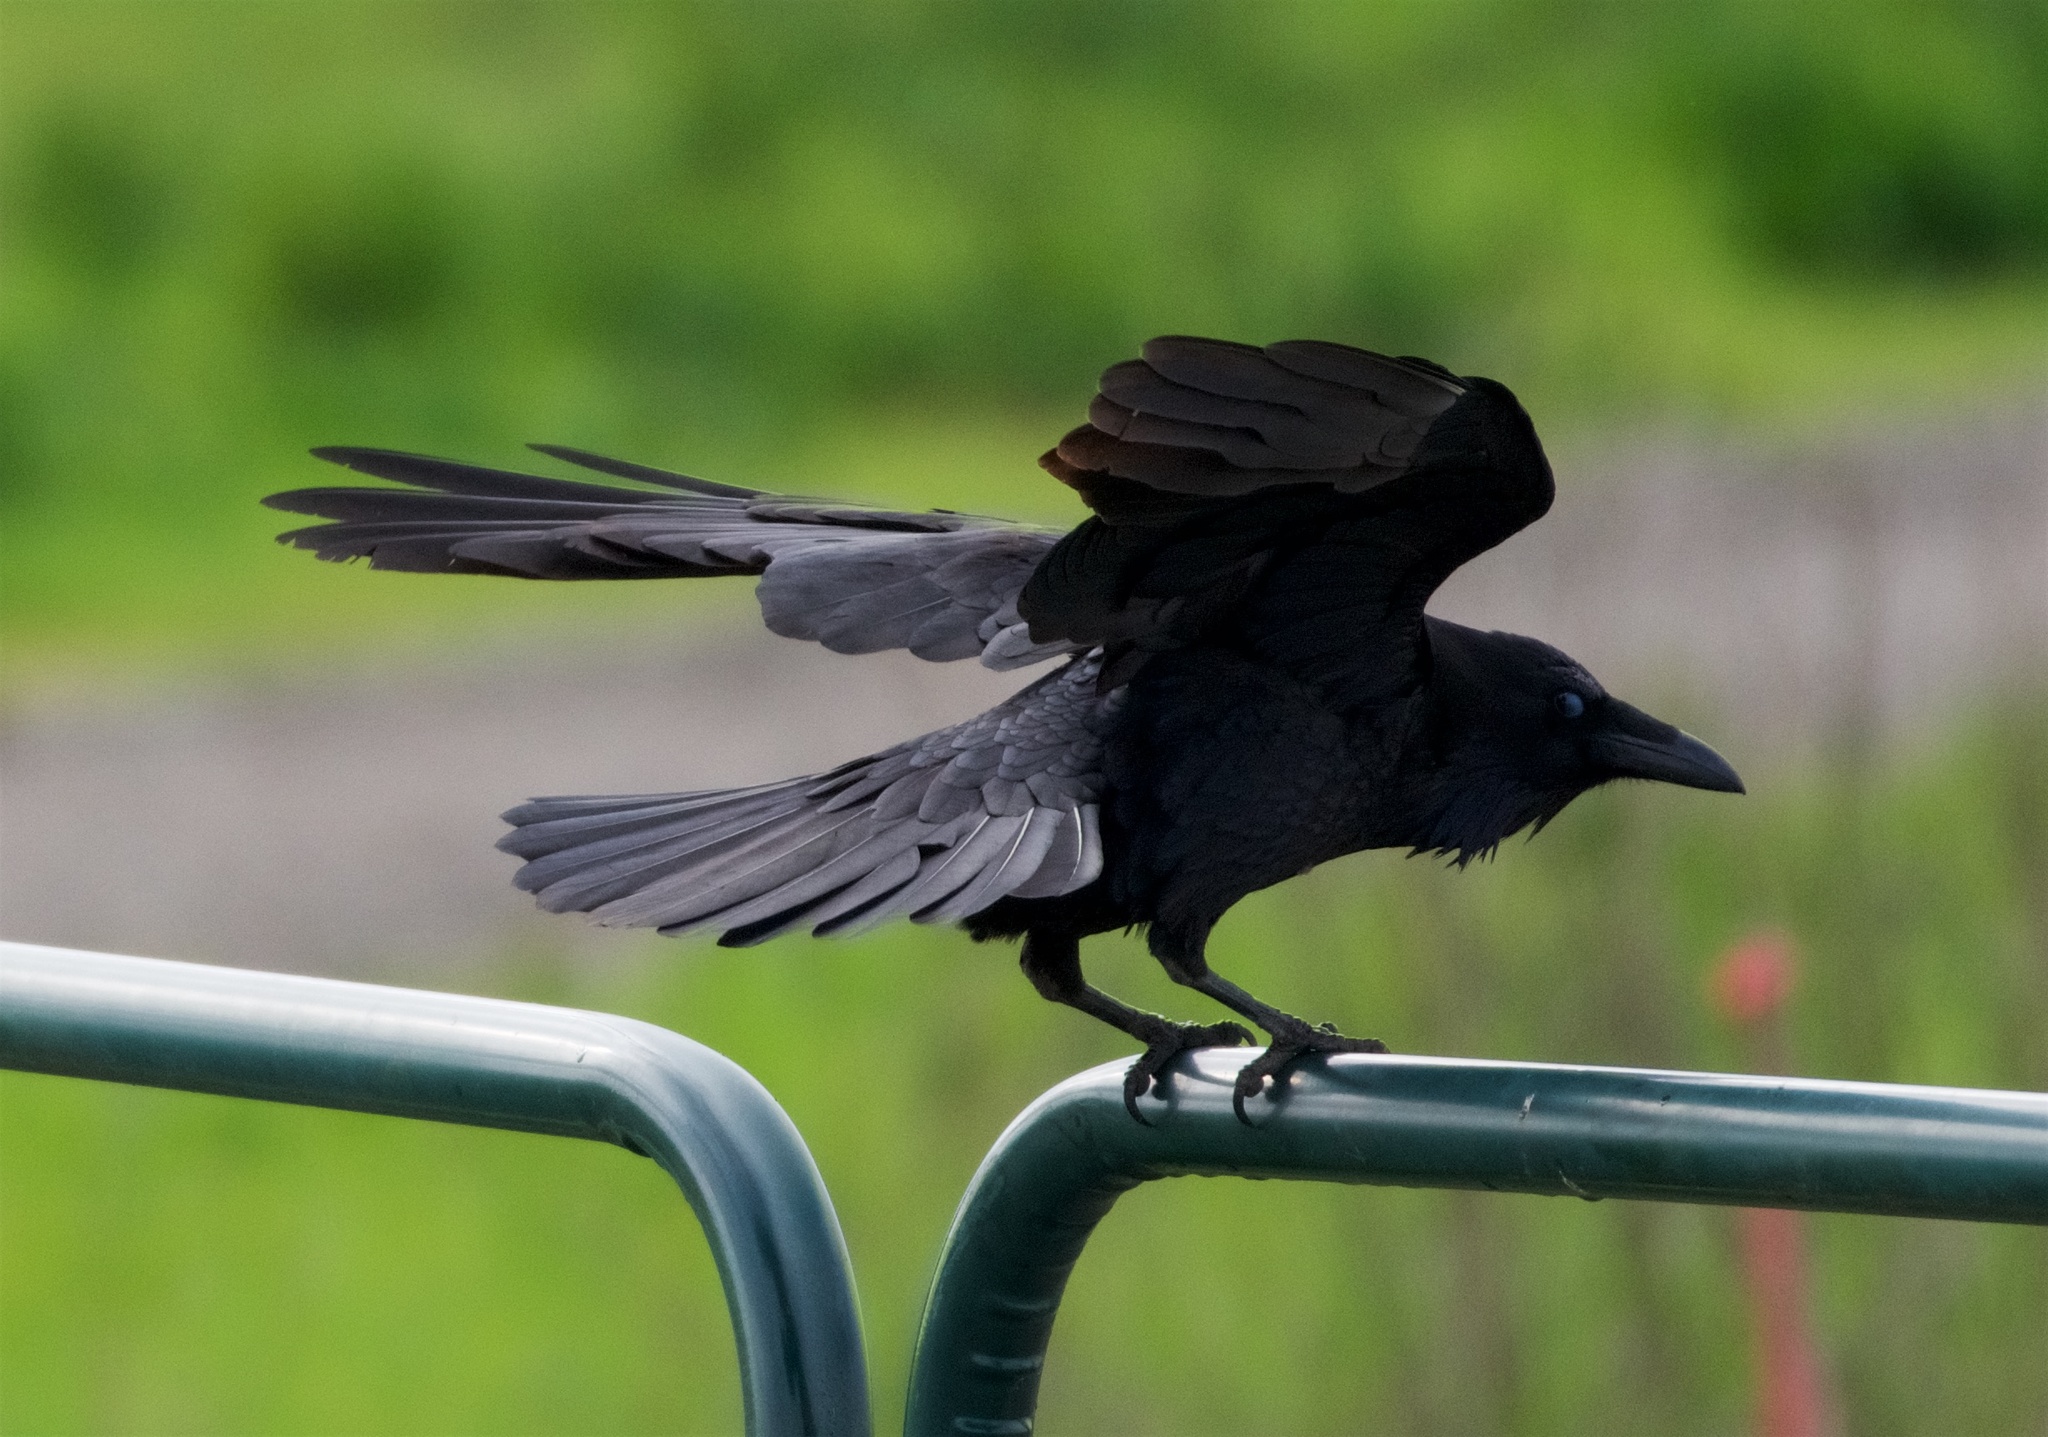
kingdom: Animalia
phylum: Chordata
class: Aves
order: Passeriformes
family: Corvidae
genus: Corvus
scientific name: Corvus corax
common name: Common raven
